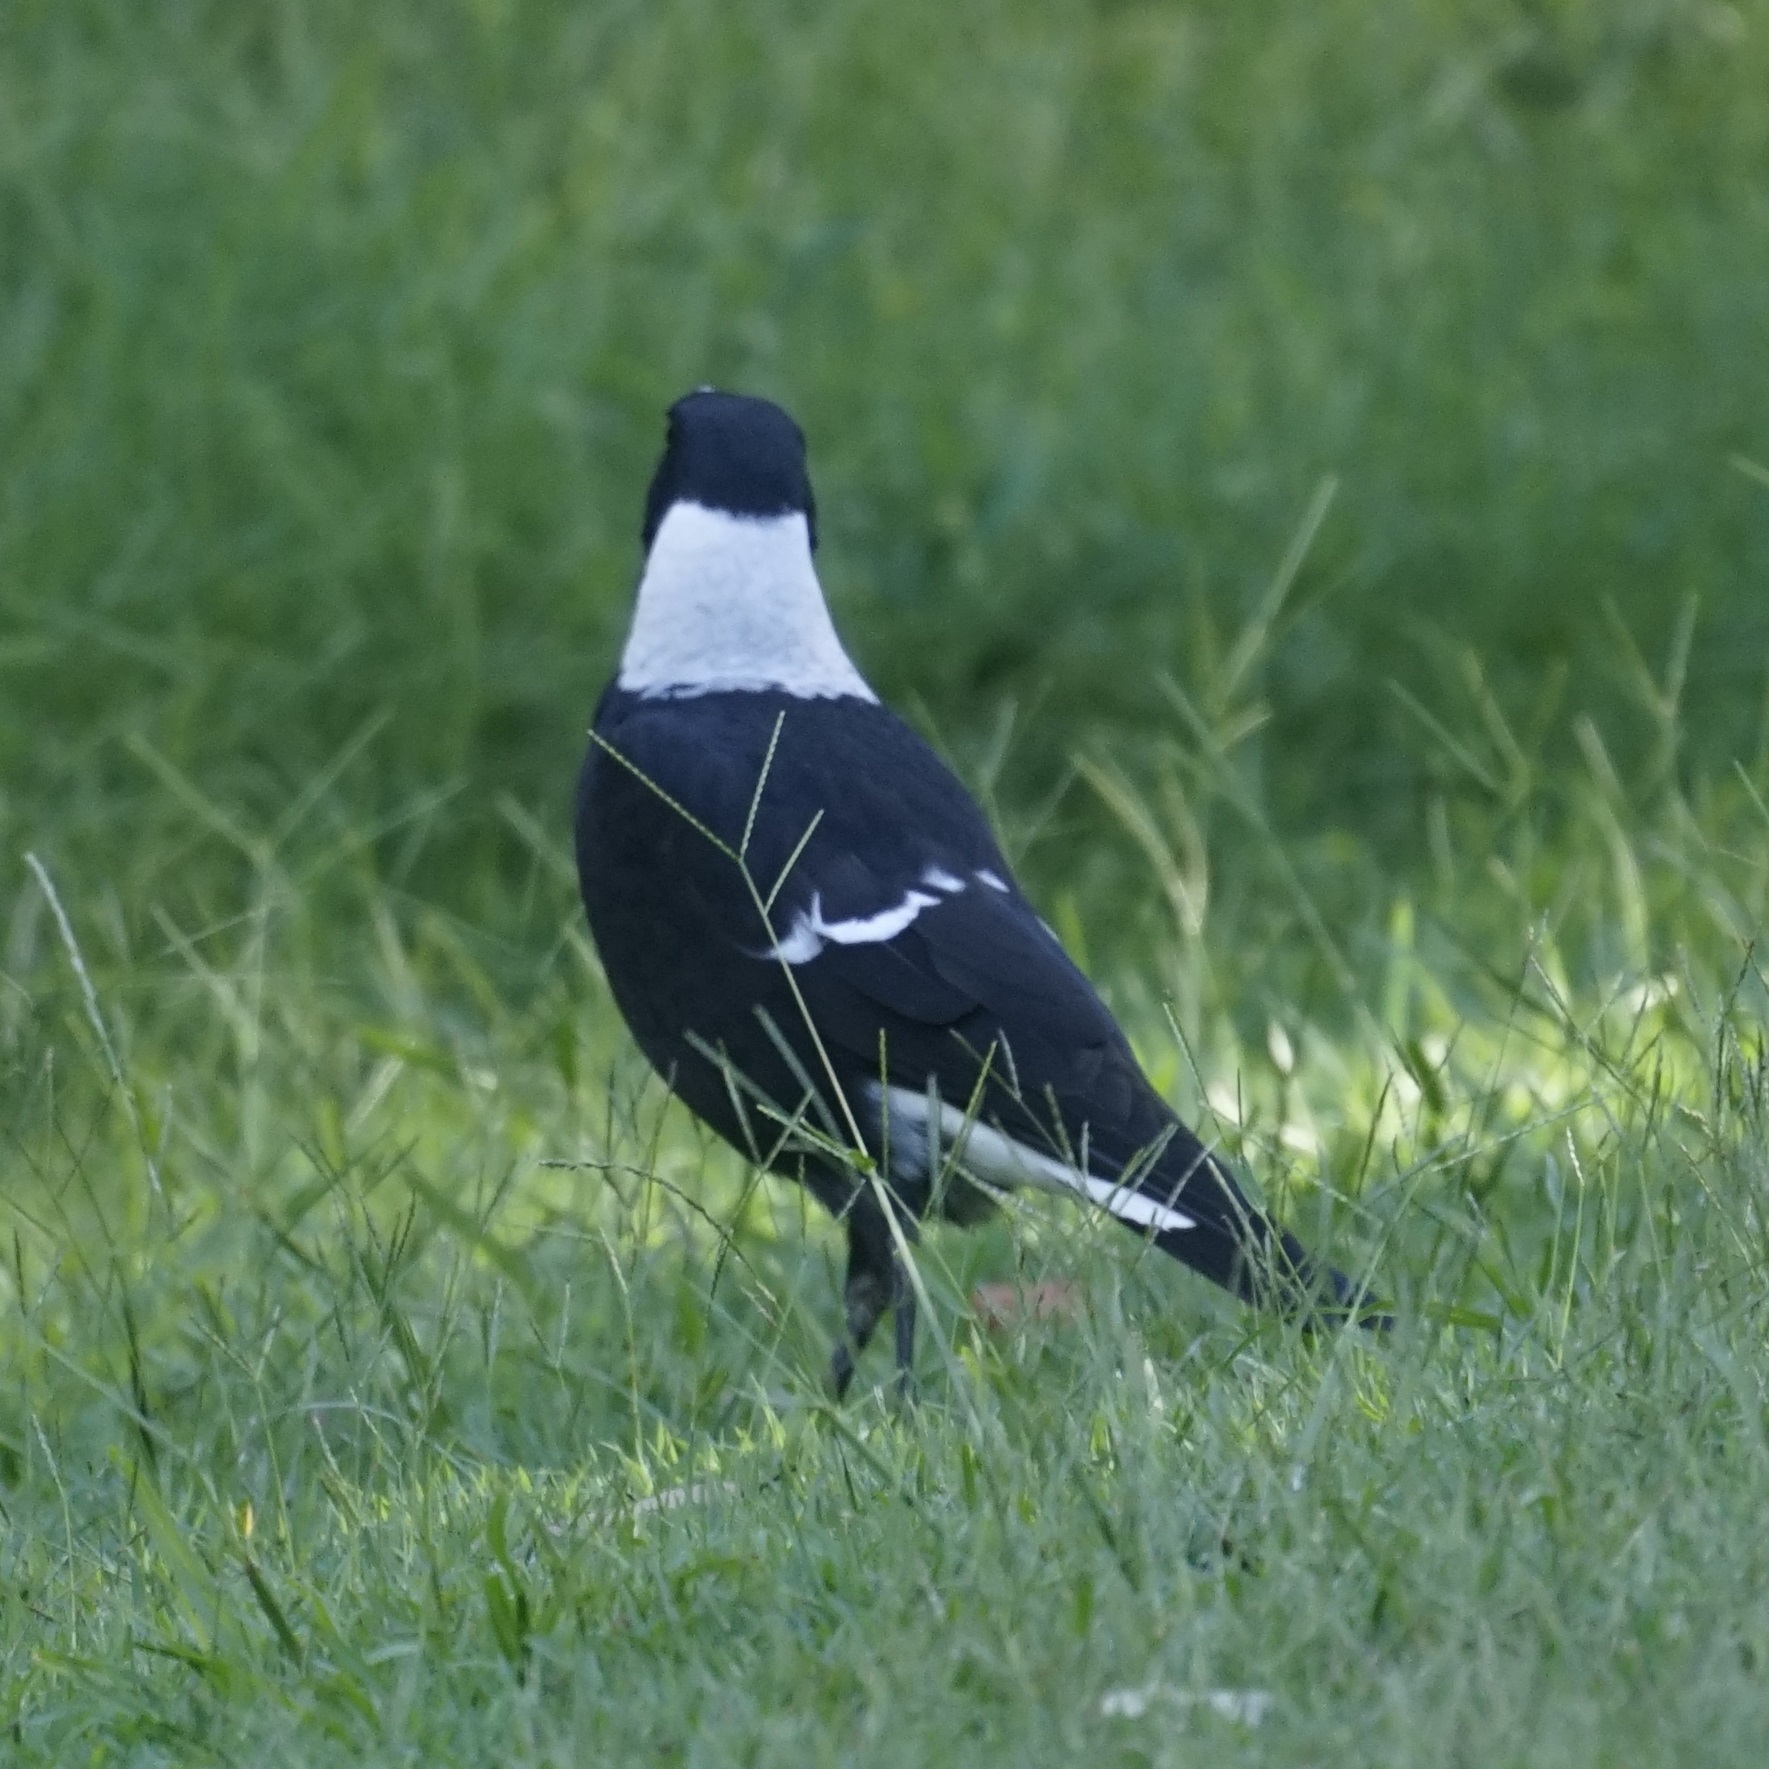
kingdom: Animalia
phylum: Chordata
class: Aves
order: Passeriformes
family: Cracticidae
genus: Gymnorhina
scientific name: Gymnorhina tibicen
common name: Australian magpie
